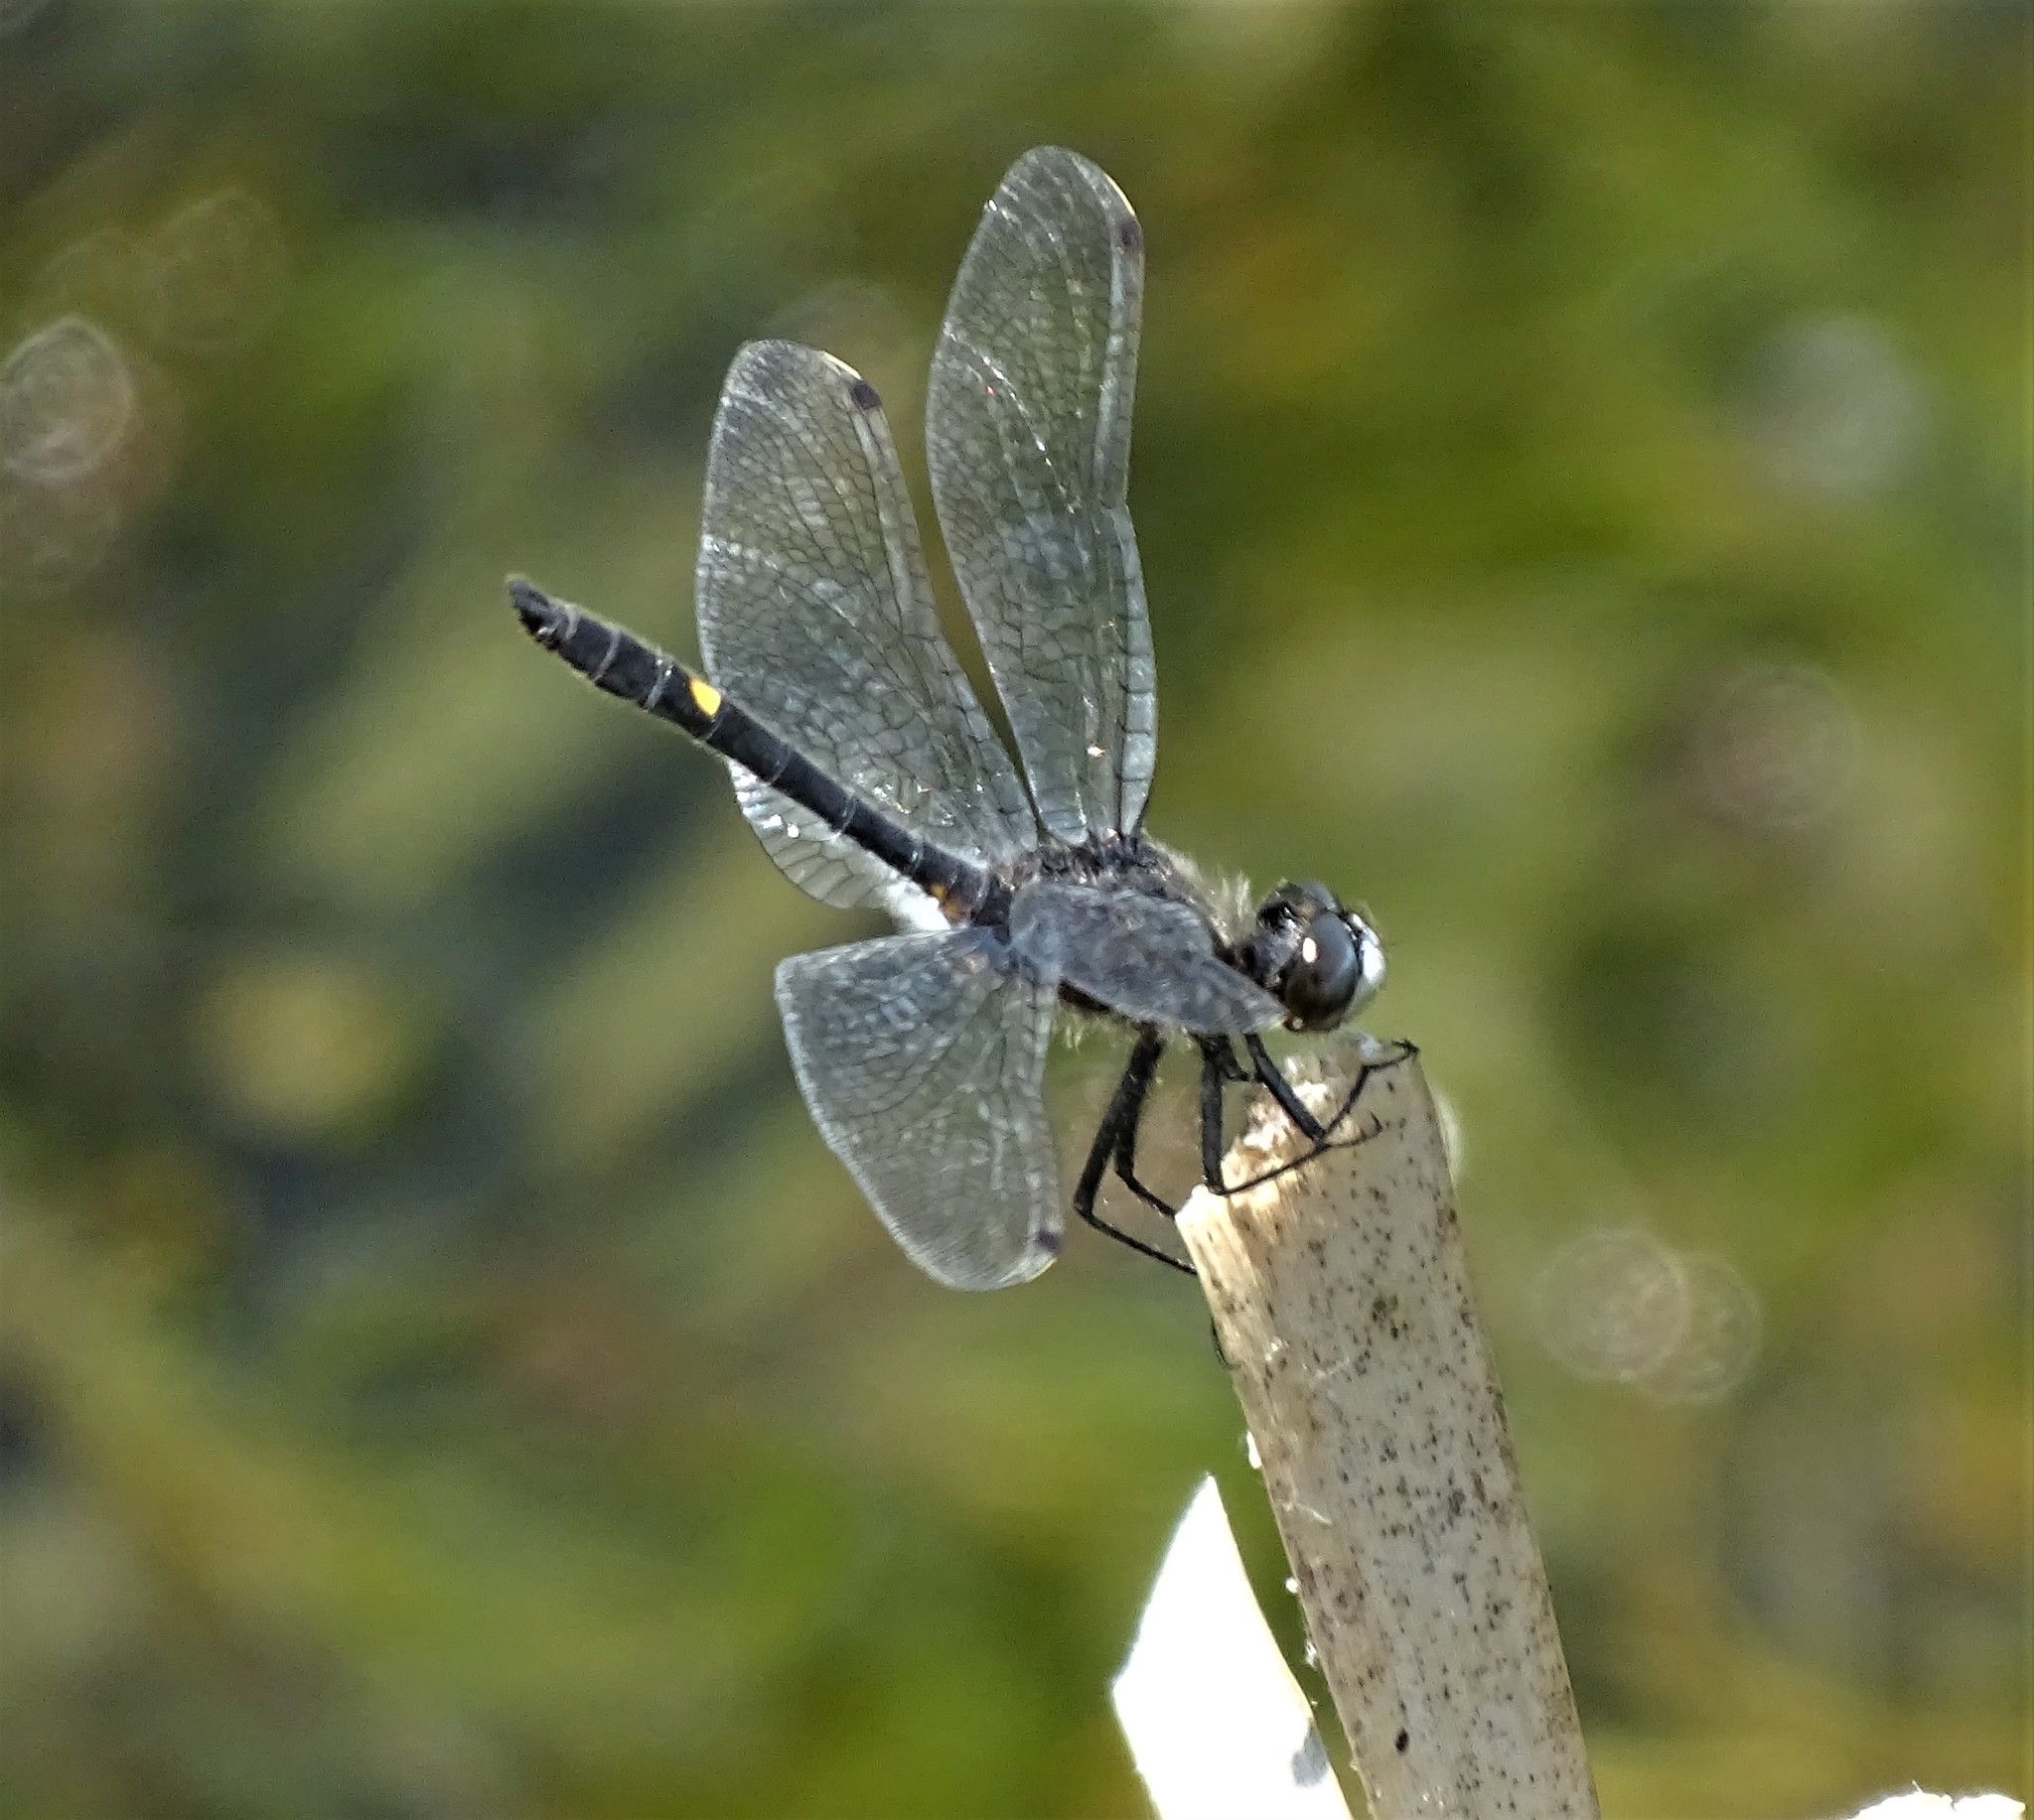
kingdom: Animalia
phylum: Arthropoda
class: Insecta
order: Odonata
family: Libellulidae
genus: Leucorrhinia
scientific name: Leucorrhinia intacta
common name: Dot-tailed whiteface
